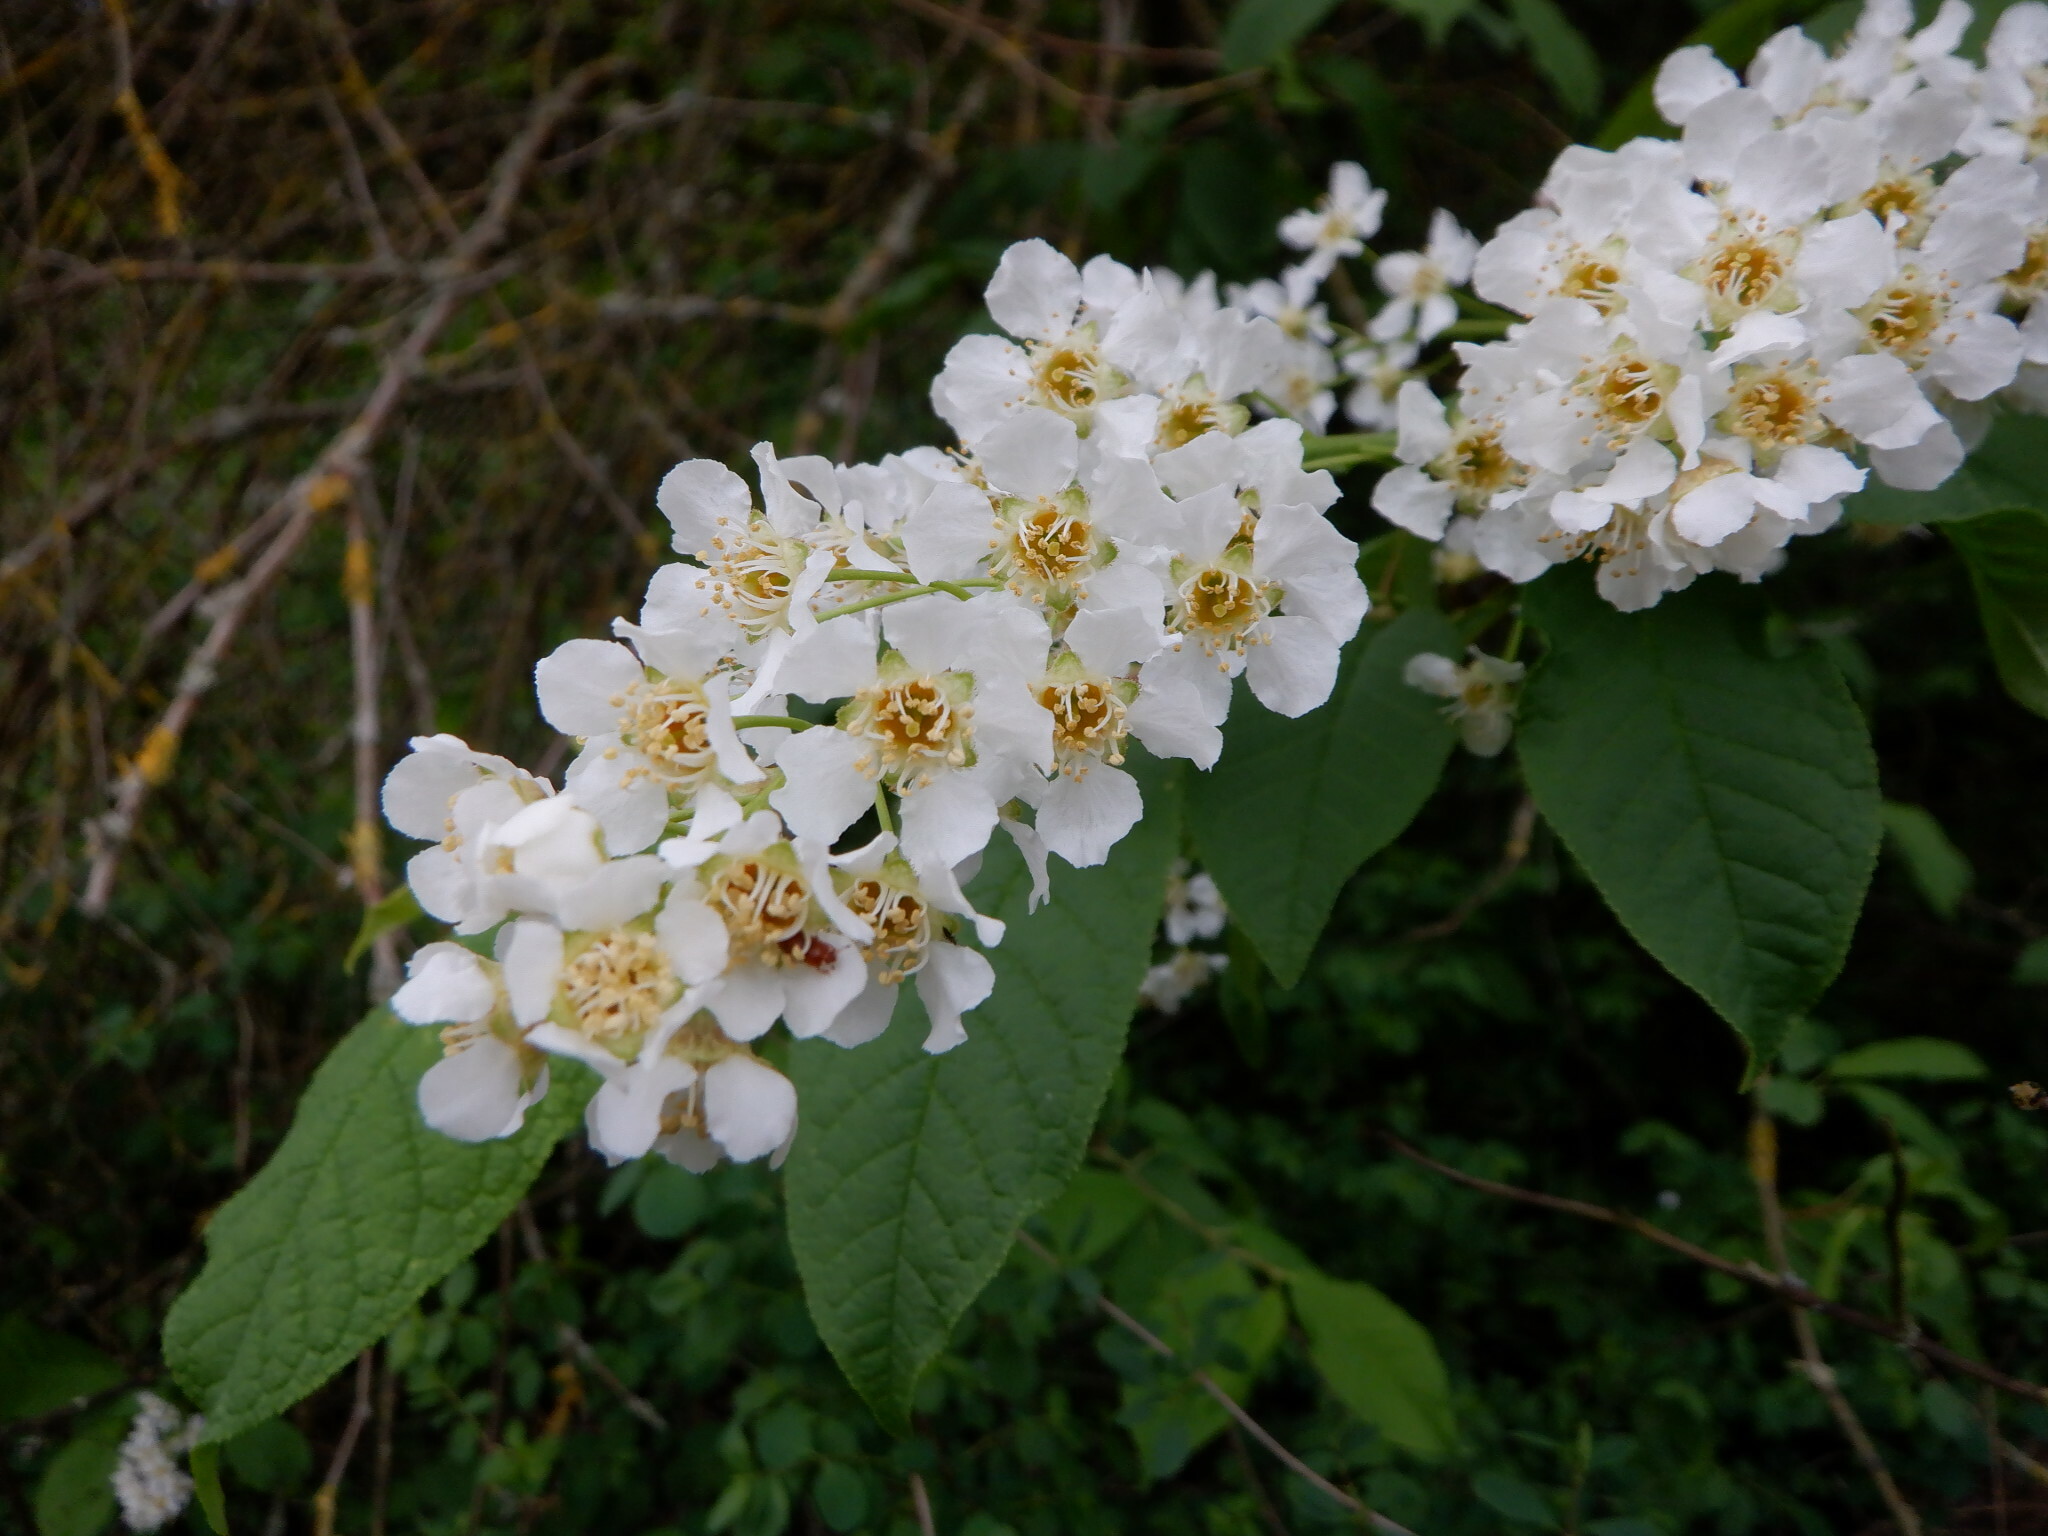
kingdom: Plantae
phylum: Tracheophyta
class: Magnoliopsida
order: Rosales
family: Rosaceae
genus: Prunus
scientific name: Prunus padus
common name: Bird cherry
